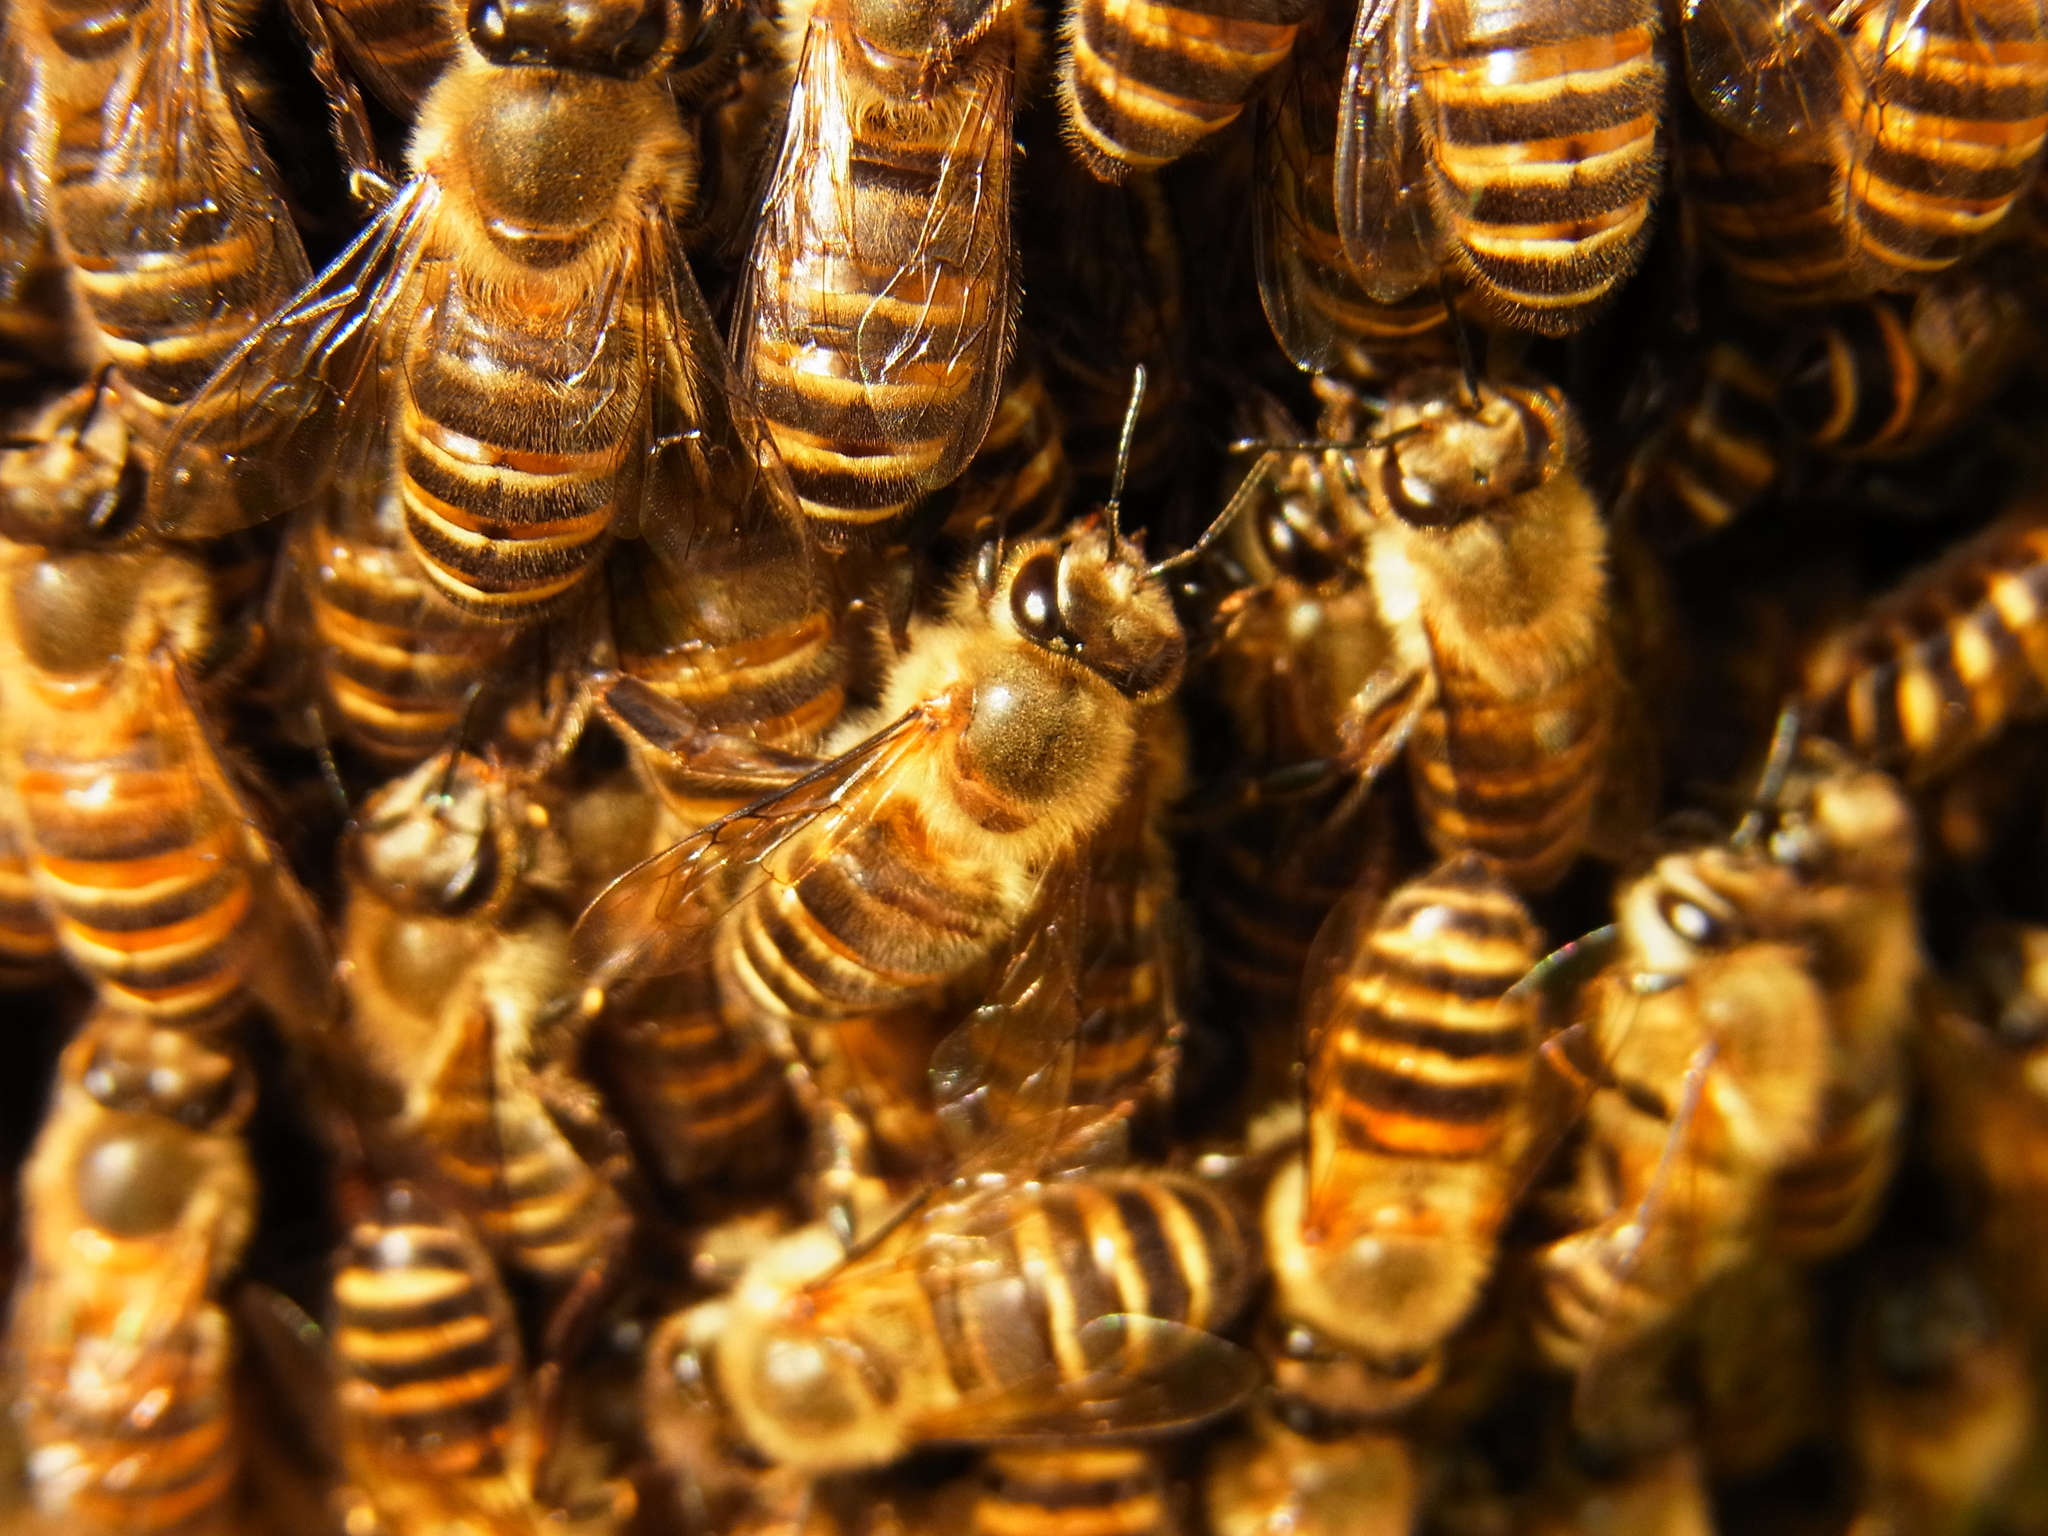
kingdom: Animalia
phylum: Arthropoda
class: Insecta
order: Hymenoptera
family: Apidae
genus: Apis
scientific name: Apis cerana
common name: Honey bee
